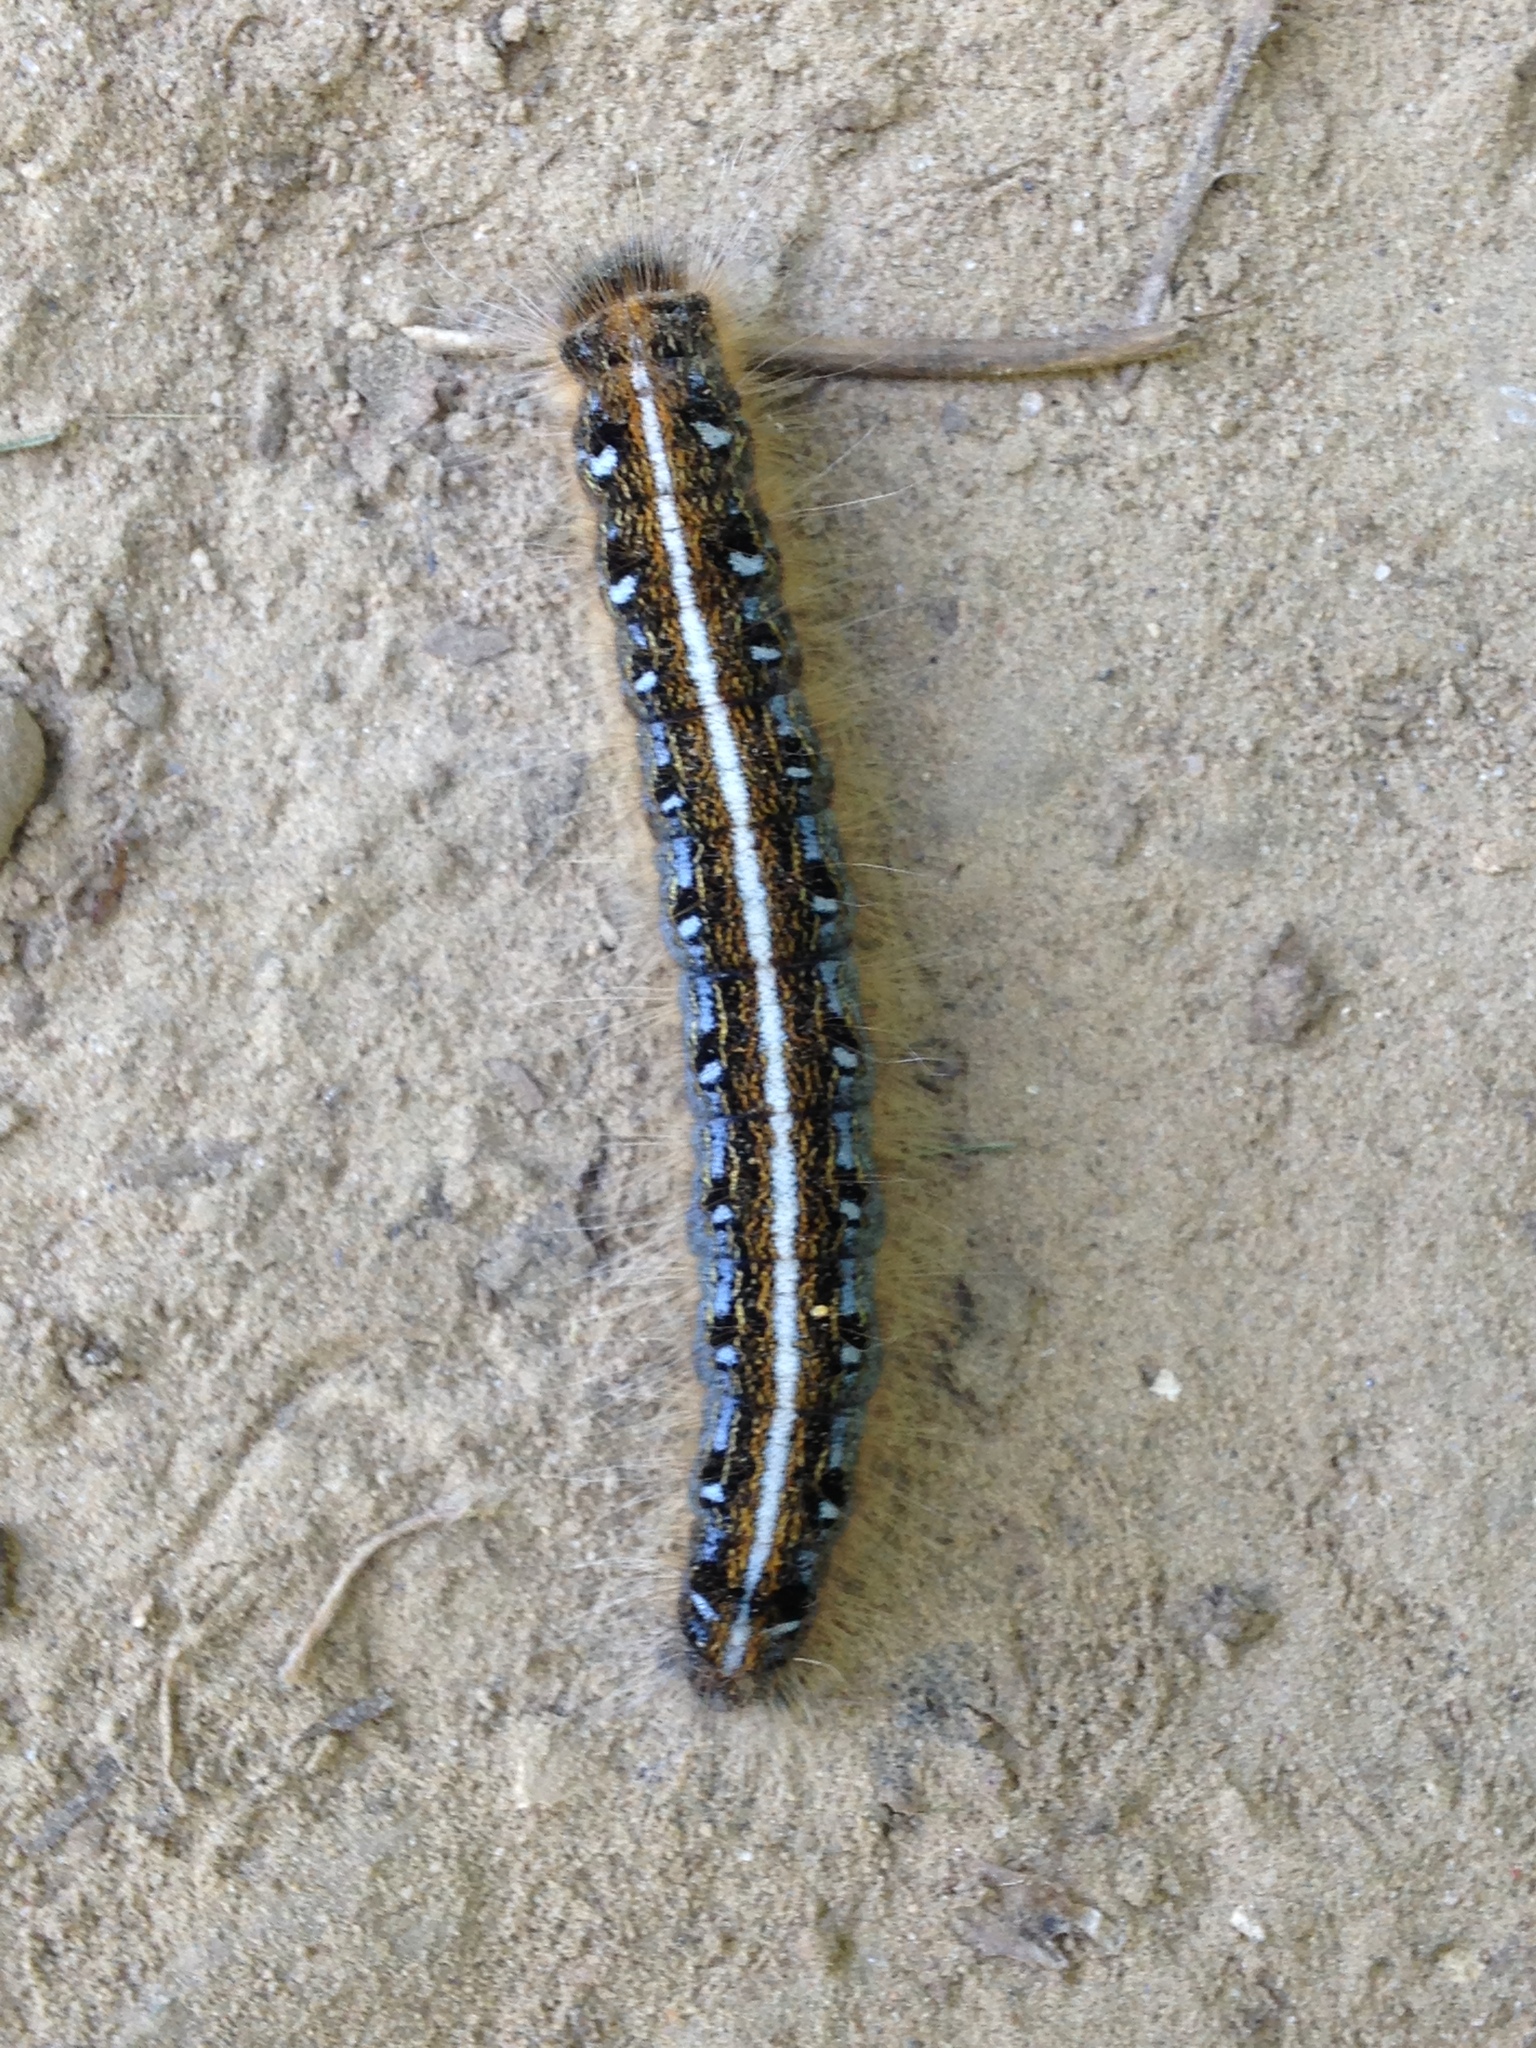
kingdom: Animalia
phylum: Arthropoda
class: Insecta
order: Lepidoptera
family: Lasiocampidae
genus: Malacosoma
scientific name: Malacosoma americana
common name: Eastern tent caterpillar moth
